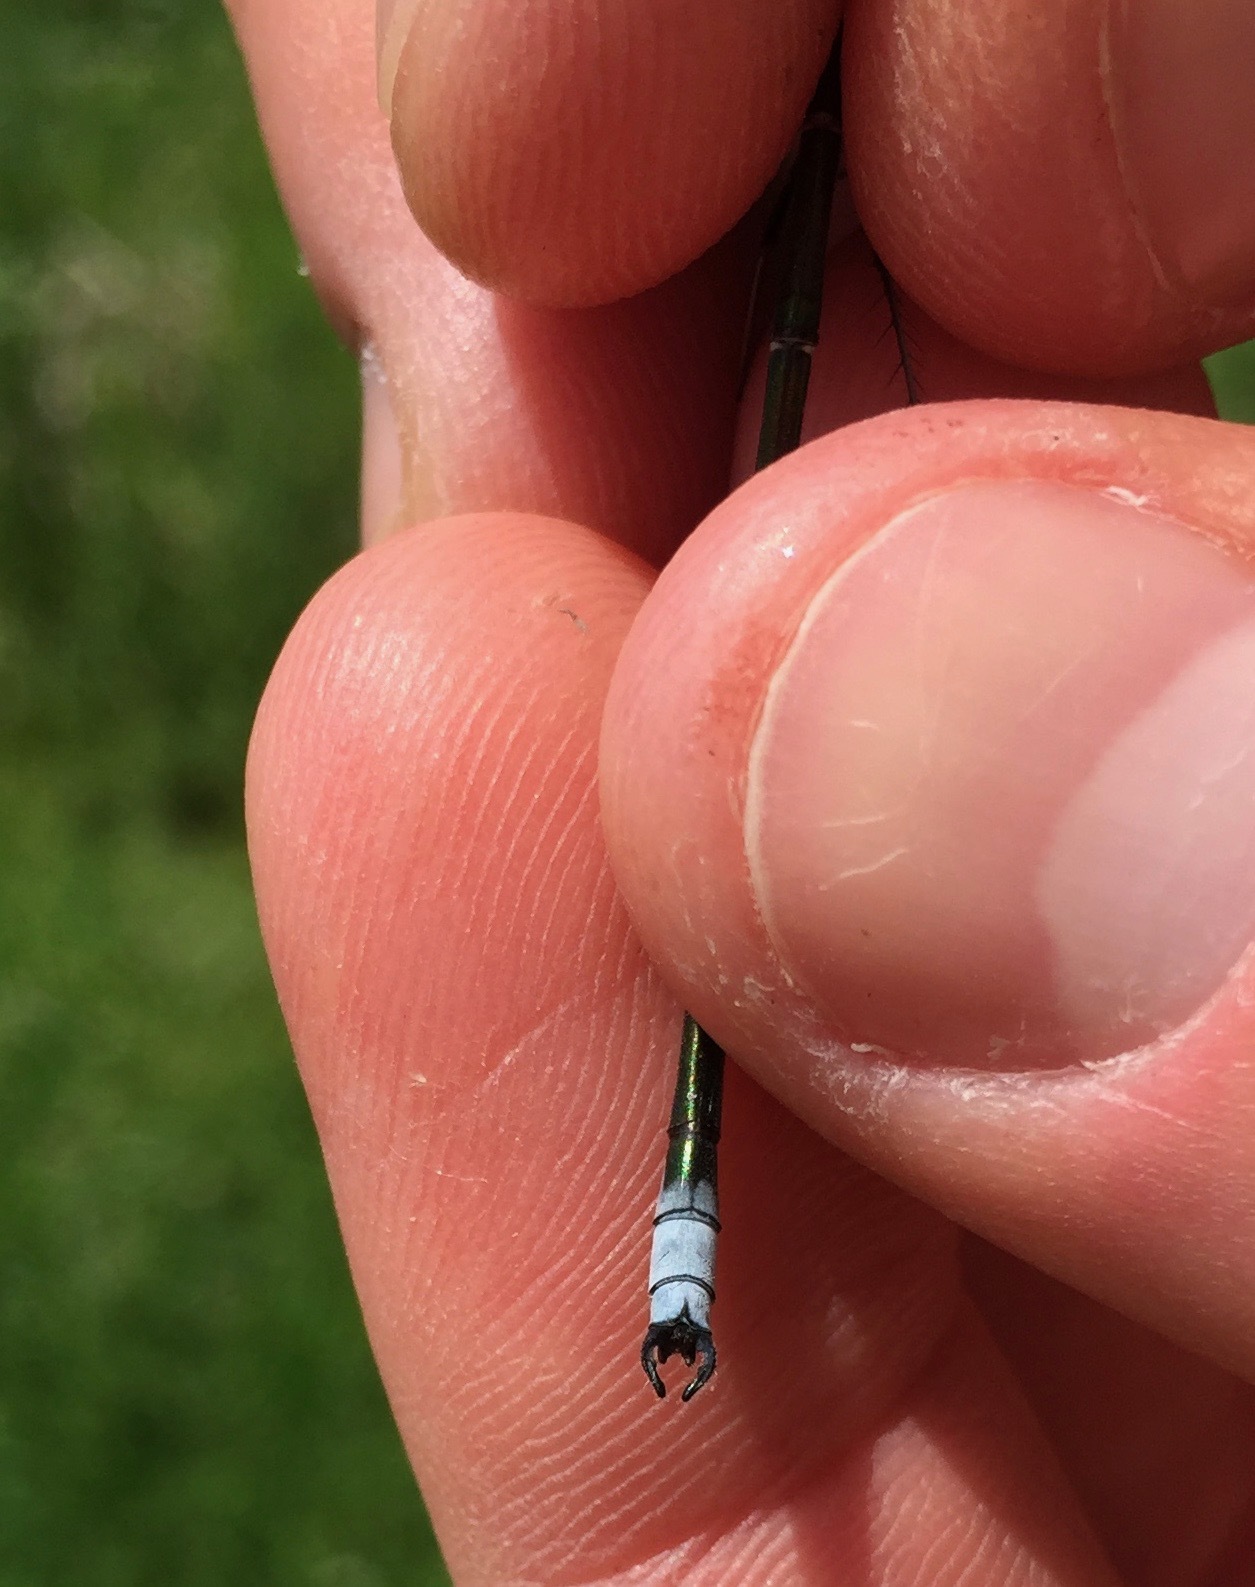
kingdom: Animalia
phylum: Arthropoda
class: Insecta
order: Odonata
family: Lestidae
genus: Lestes
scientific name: Lestes eurinus
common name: Amber-winged spreadwing
